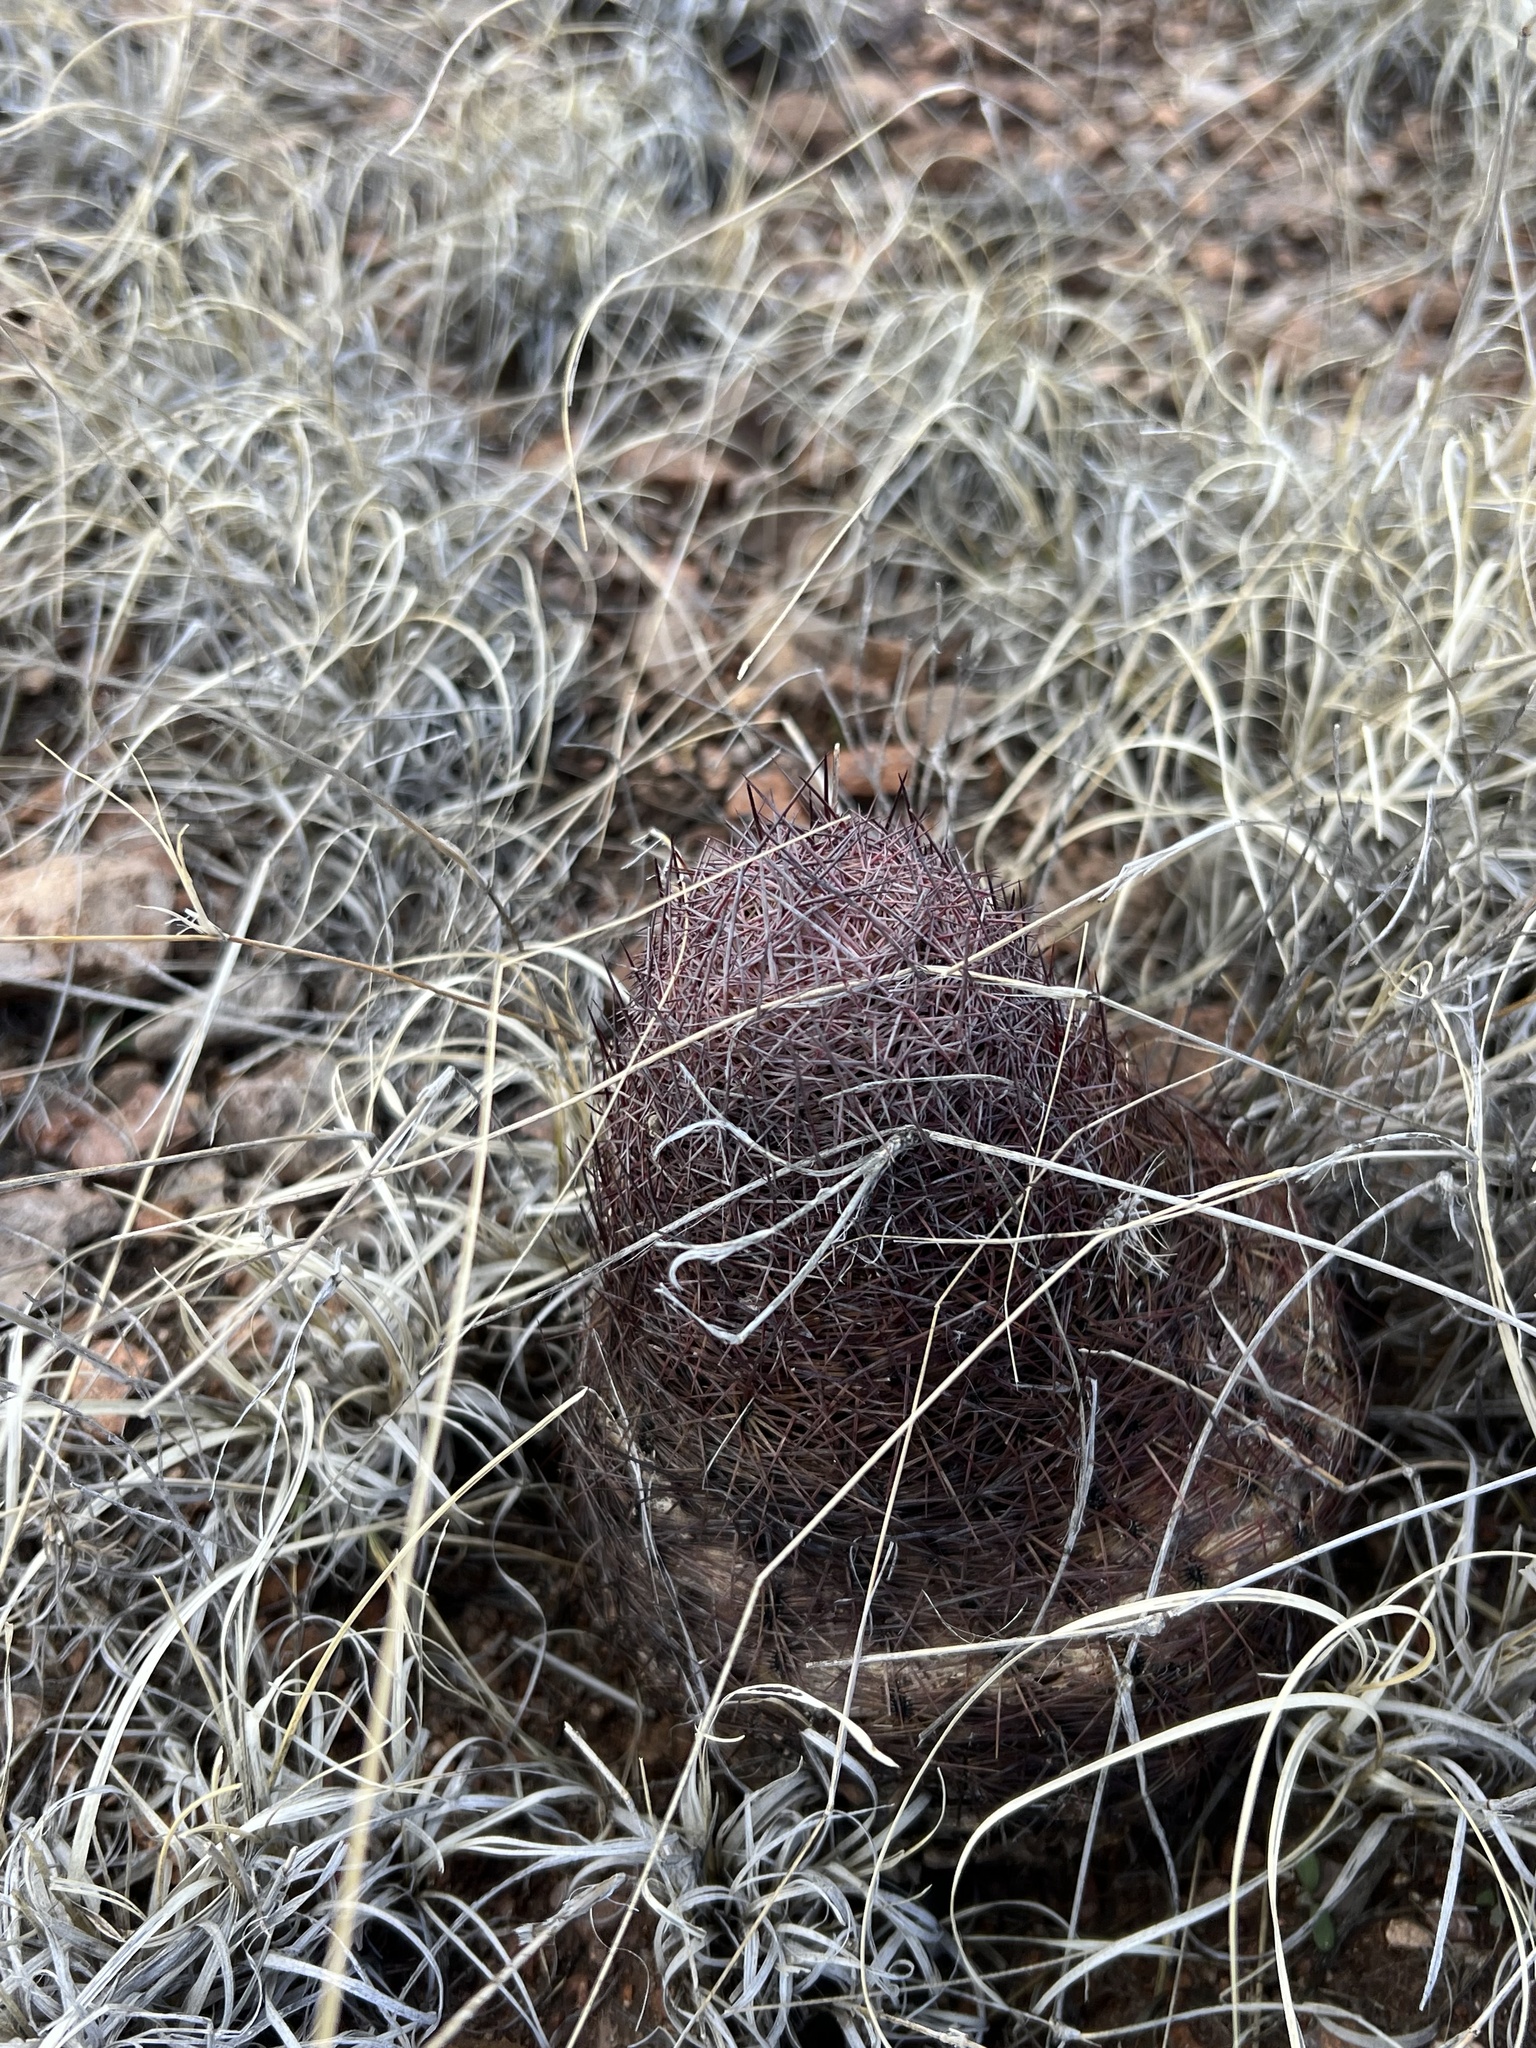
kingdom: Plantae
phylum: Tracheophyta
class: Magnoliopsida
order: Caryophyllales
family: Cactaceae
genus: Sclerocactus
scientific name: Sclerocactus johnsonii
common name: Eight-spine fishhook cactus
